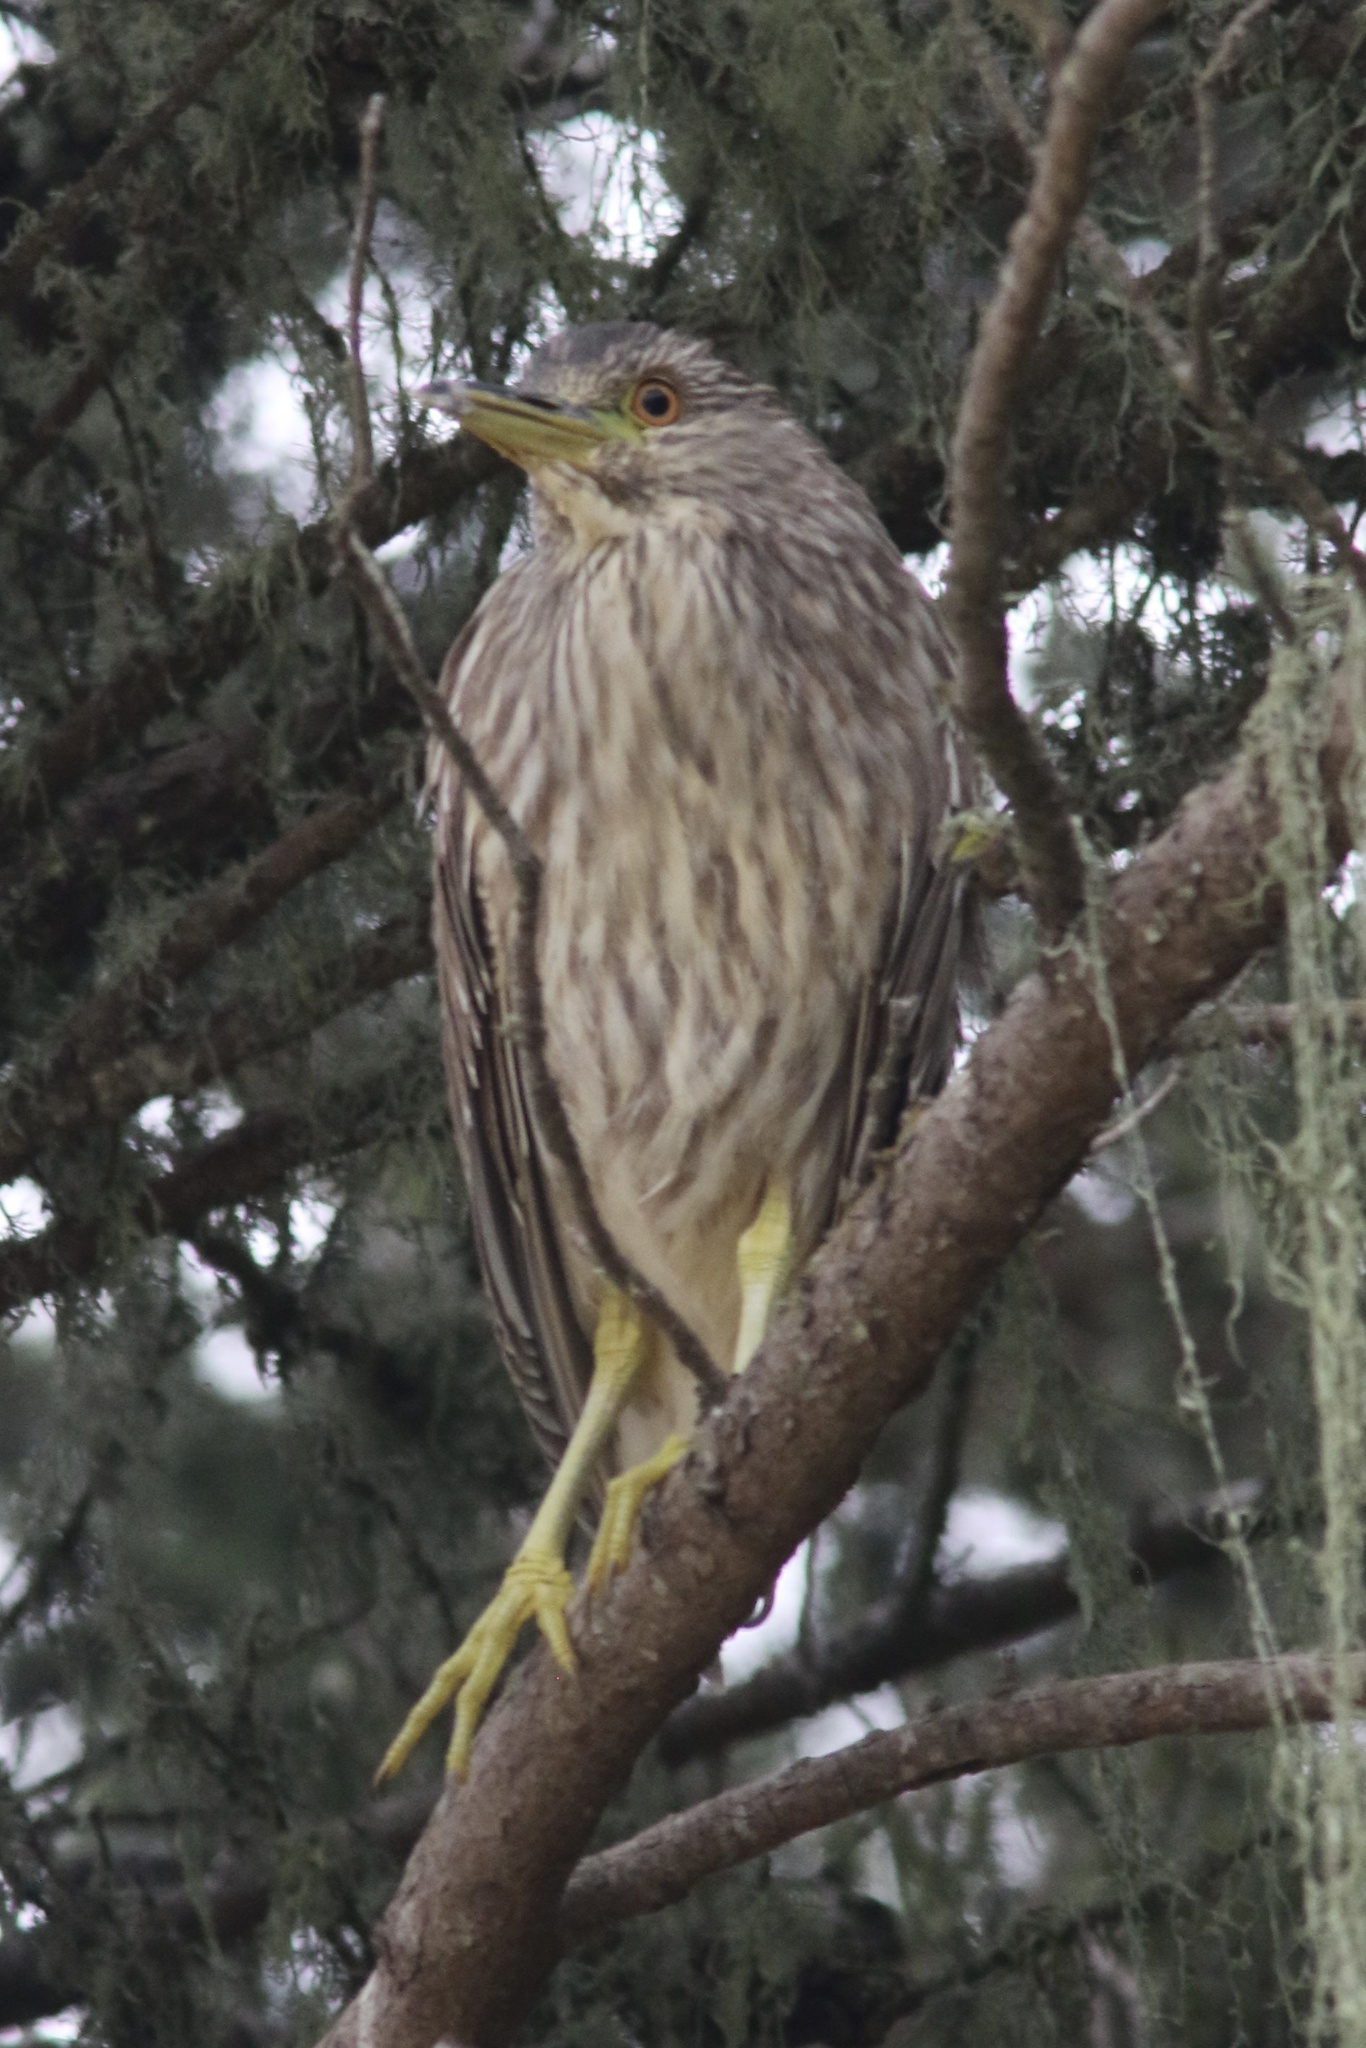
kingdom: Animalia
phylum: Chordata
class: Aves
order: Pelecaniformes
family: Ardeidae
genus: Nycticorax
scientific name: Nycticorax nycticorax
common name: Black-crowned night heron
